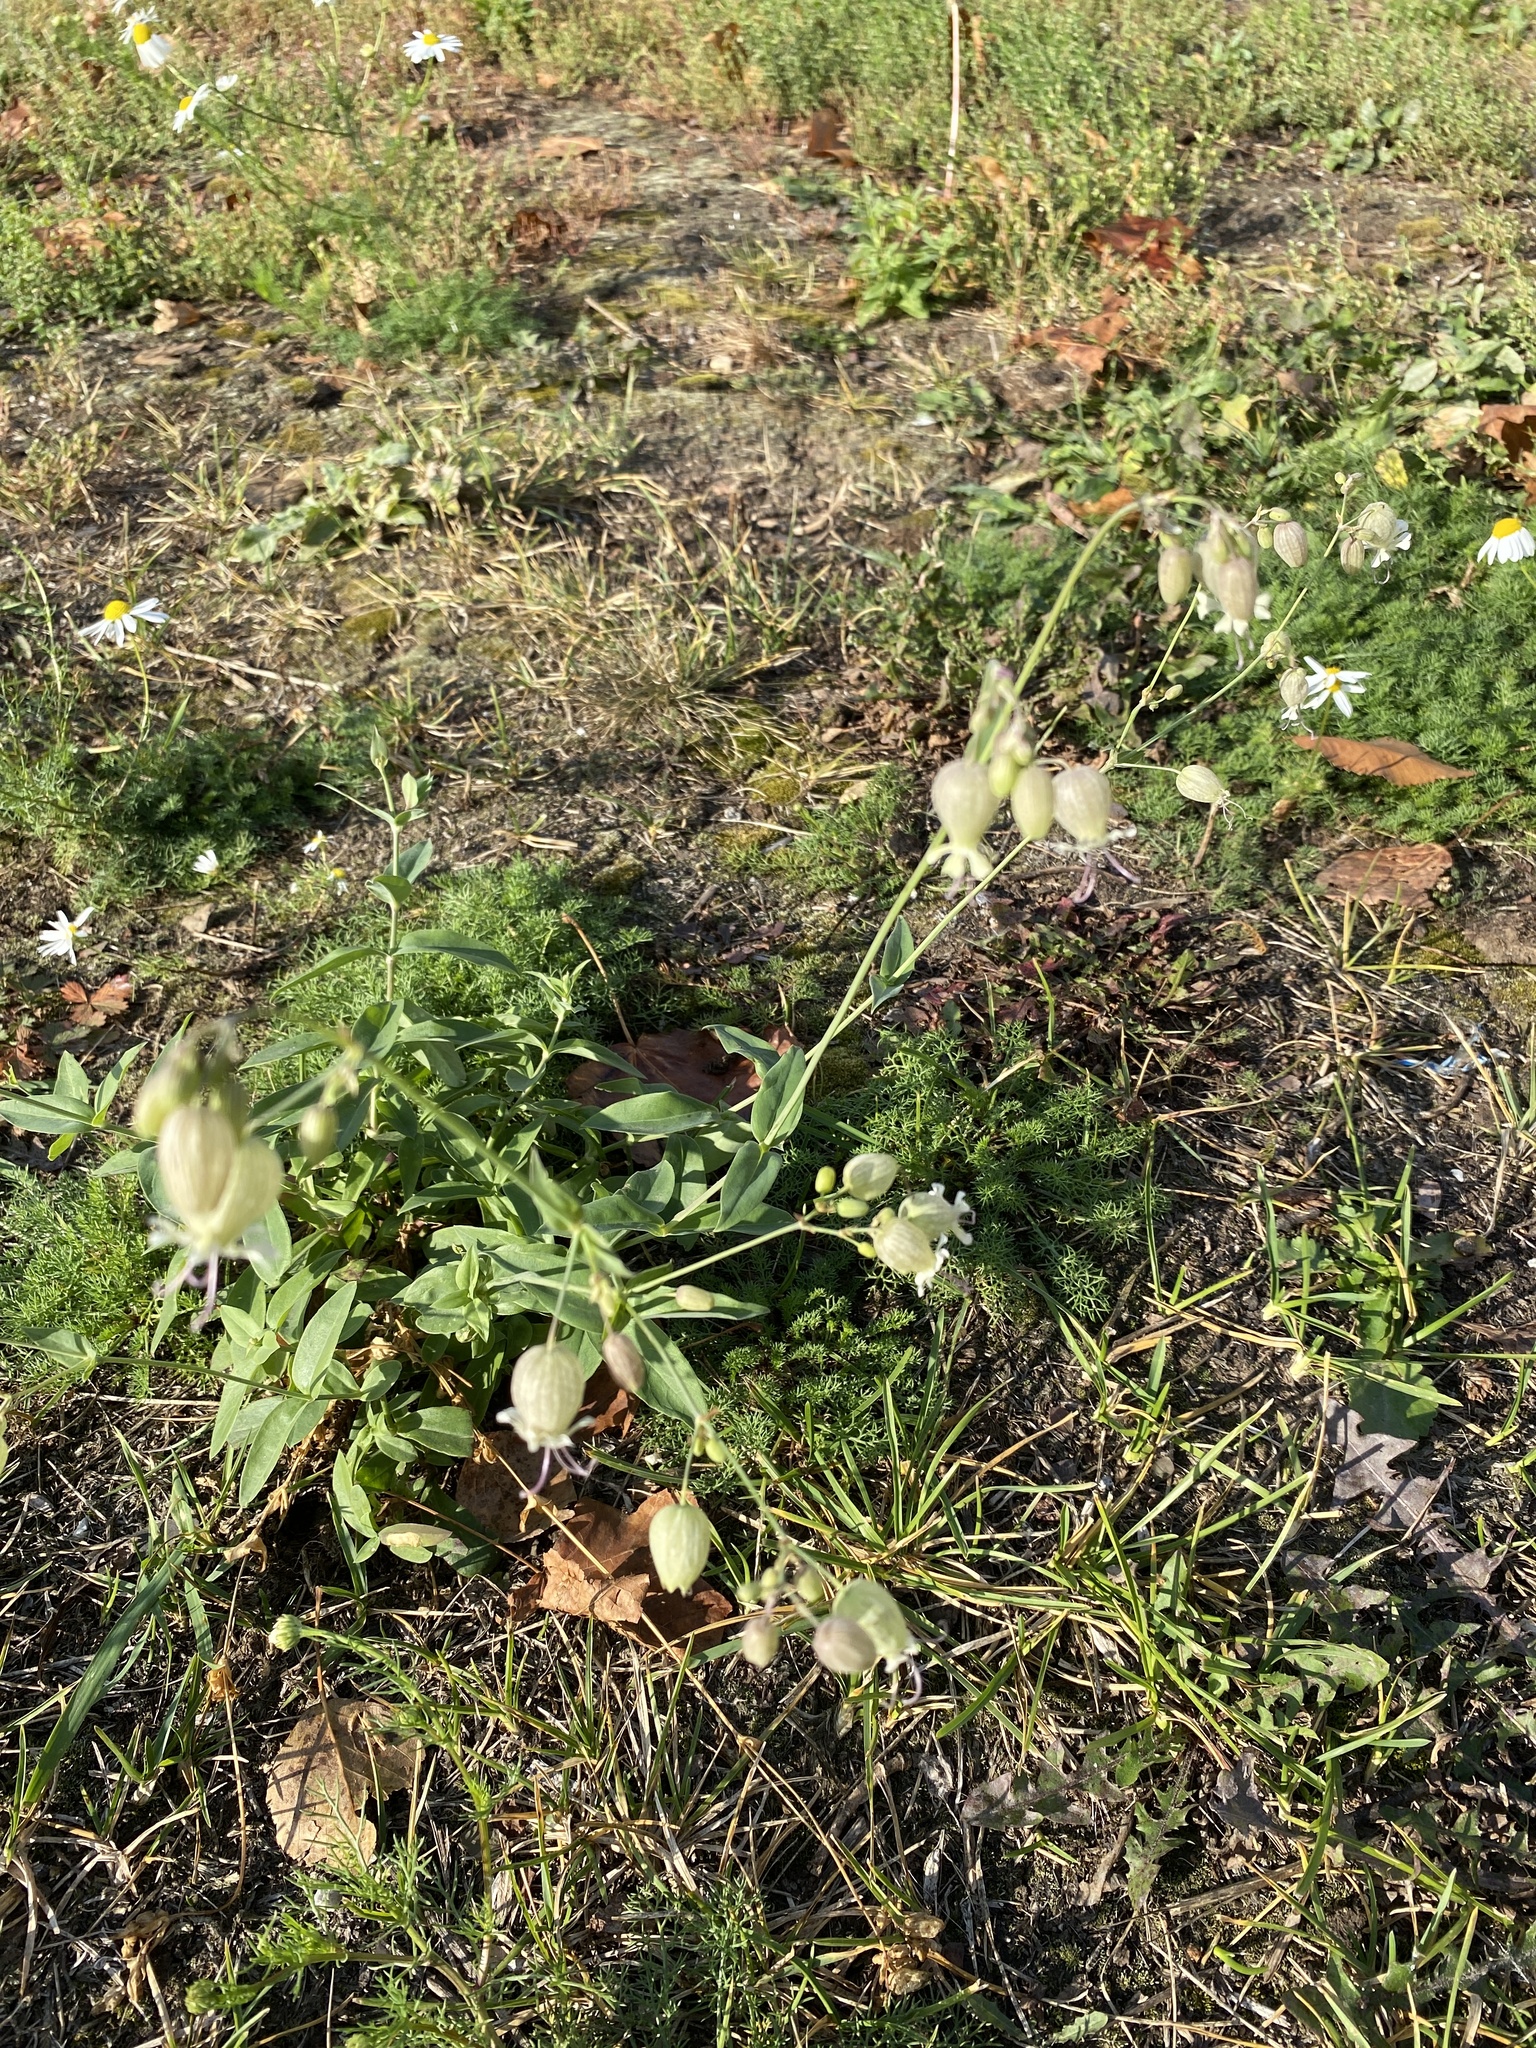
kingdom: Plantae
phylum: Tracheophyta
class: Magnoliopsida
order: Caryophyllales
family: Caryophyllaceae
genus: Silene
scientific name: Silene vulgaris
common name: Bladder campion
